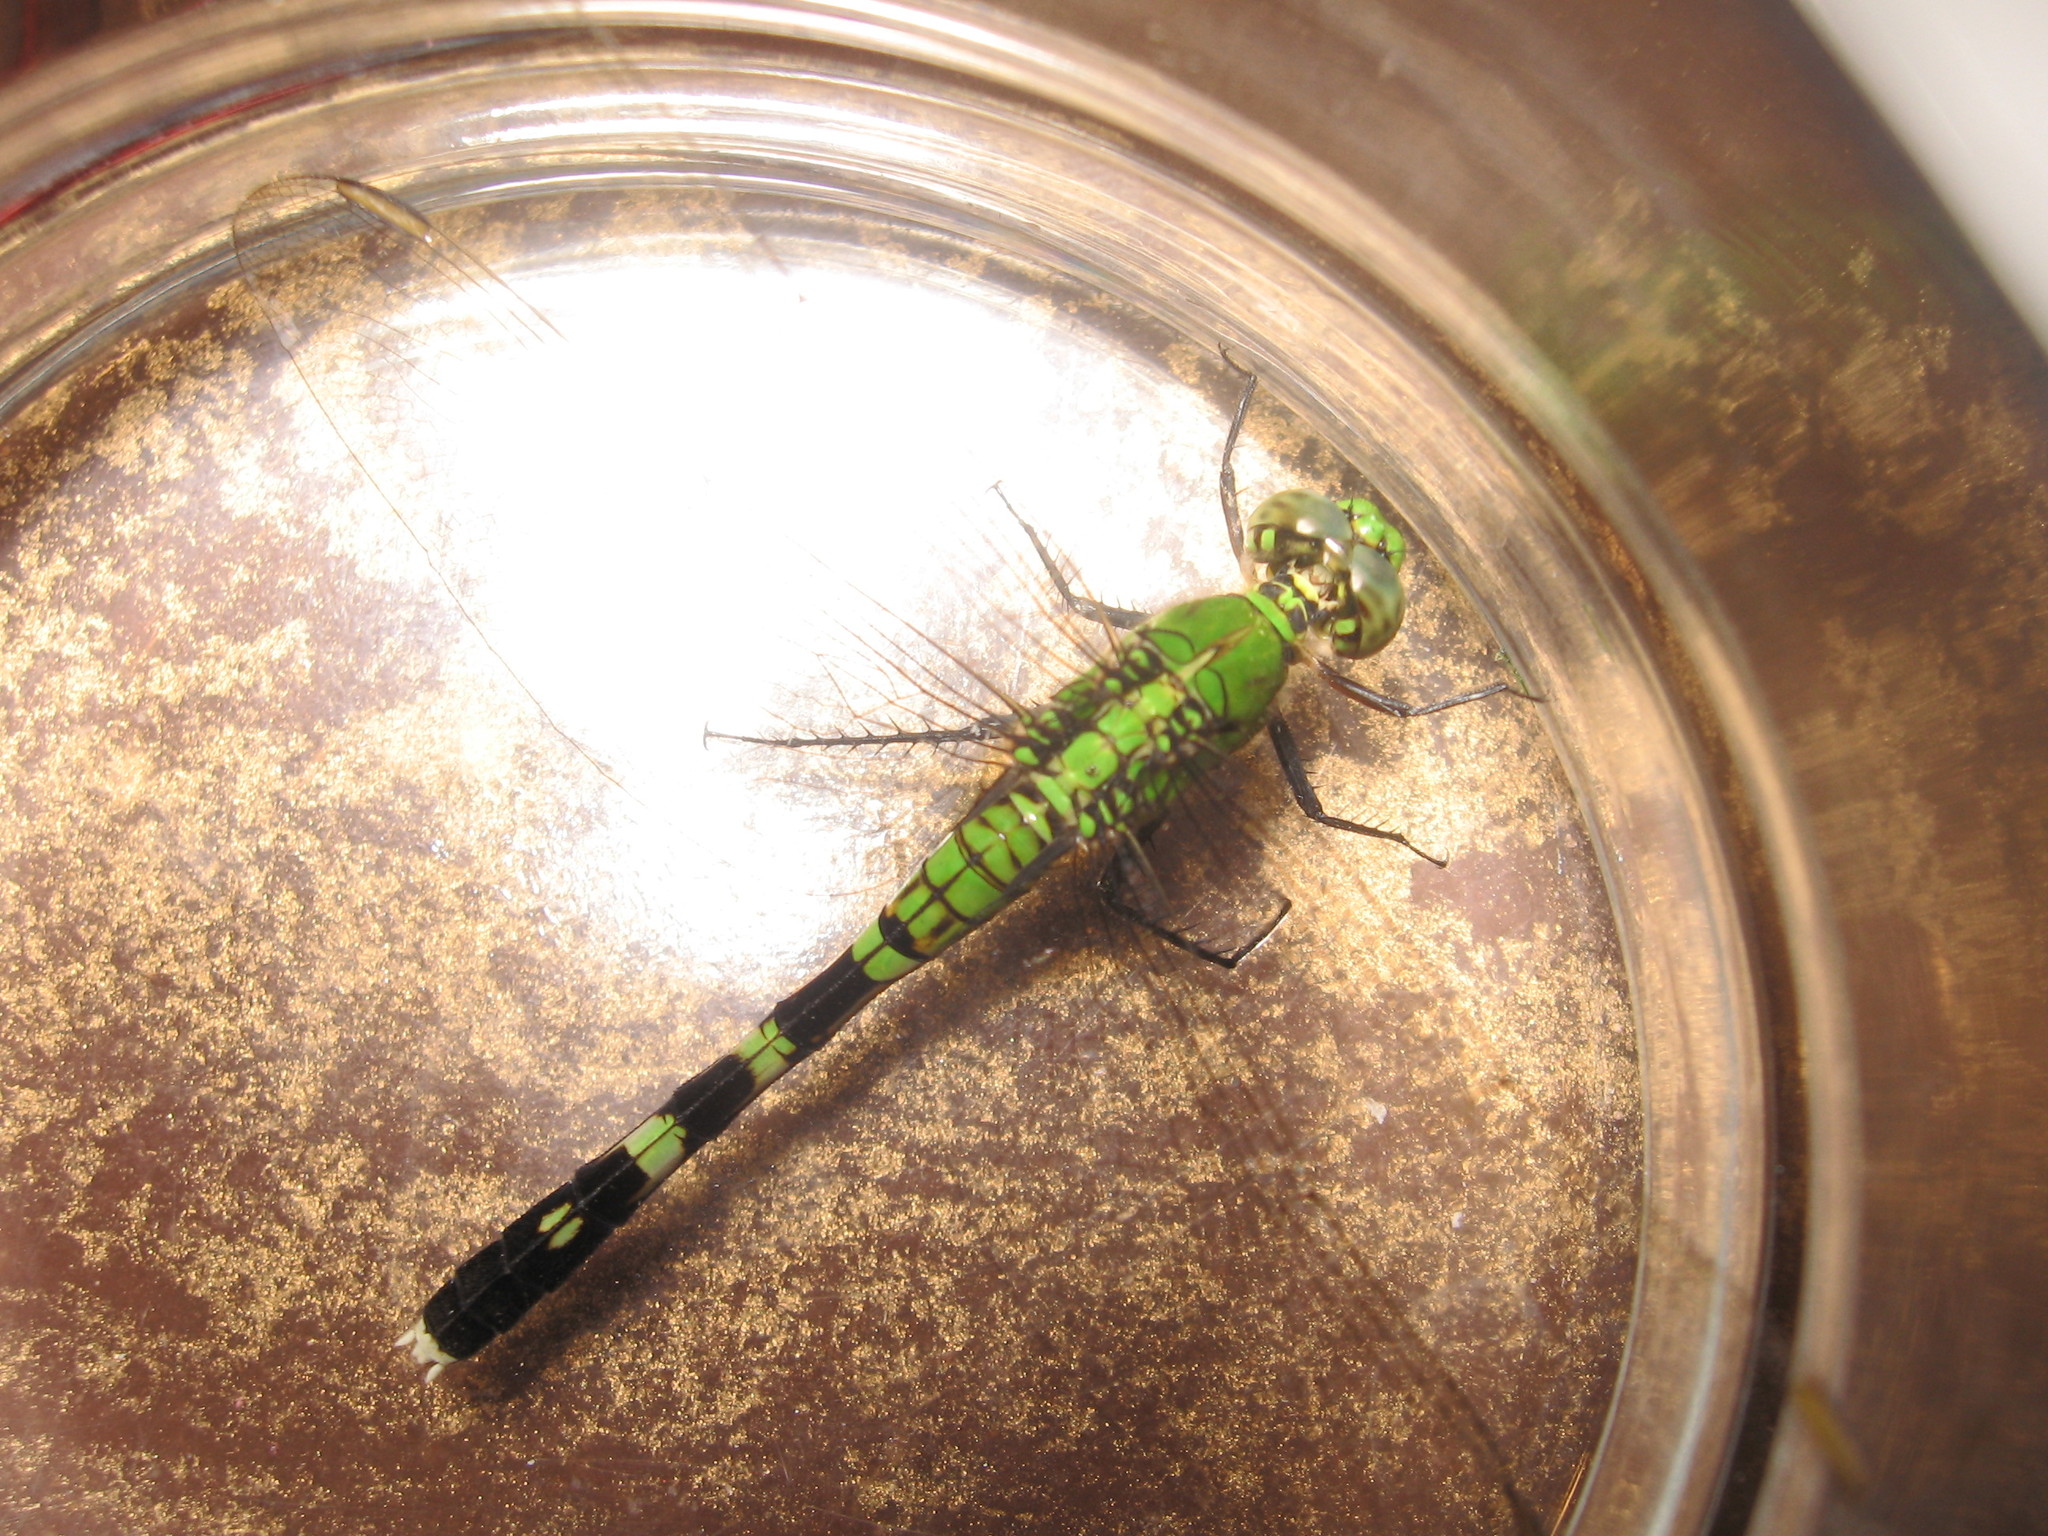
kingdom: Animalia
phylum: Arthropoda
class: Insecta
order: Odonata
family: Libellulidae
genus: Erythemis
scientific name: Erythemis simplicicollis
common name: Eastern pondhawk
